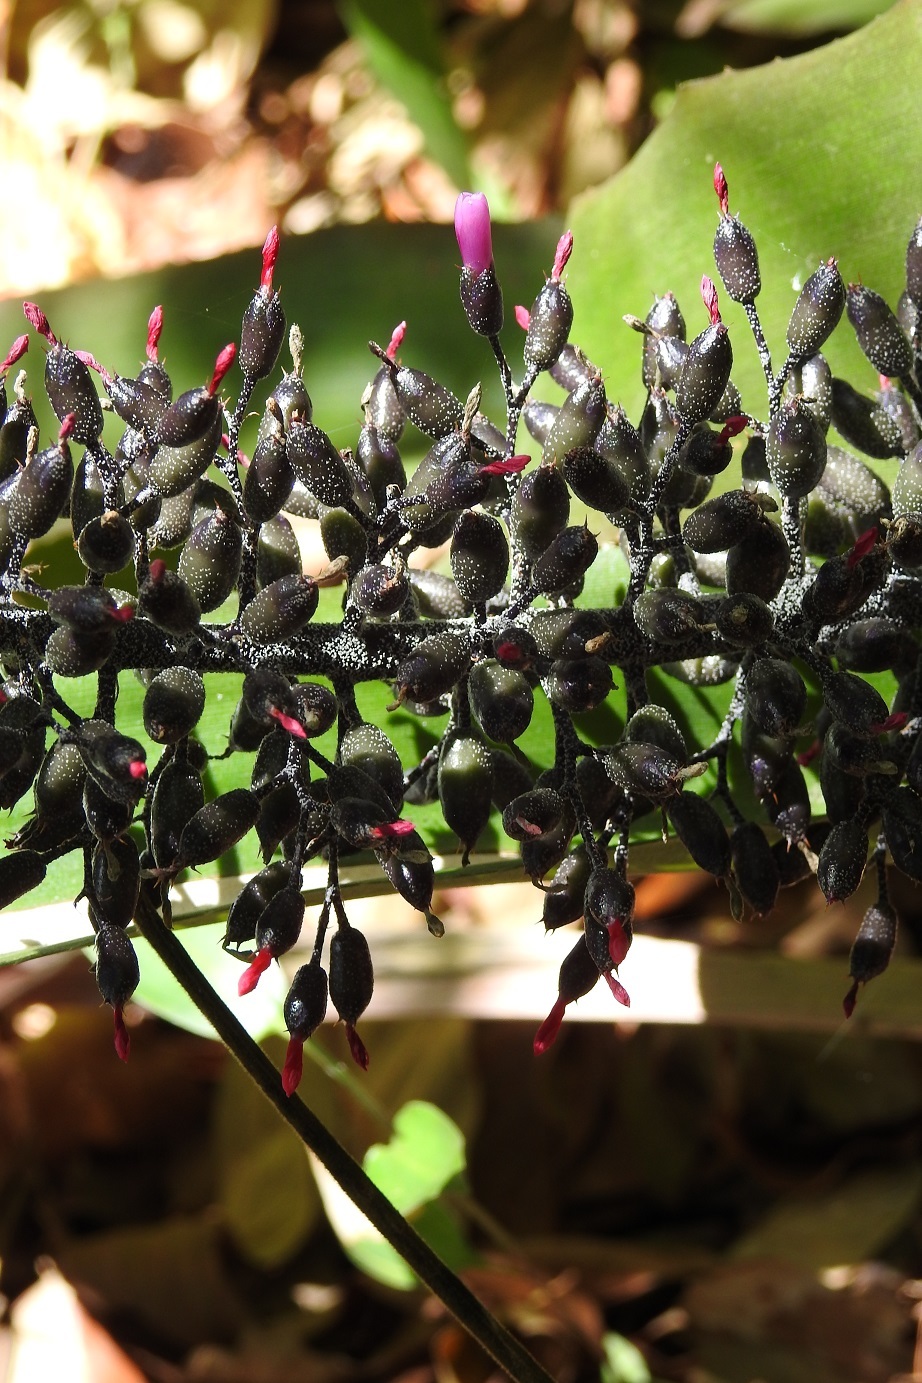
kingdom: Plantae
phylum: Tracheophyta
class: Liliopsida
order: Poales
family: Bromeliaceae
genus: Aechmea
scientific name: Aechmea lueddemanniana
